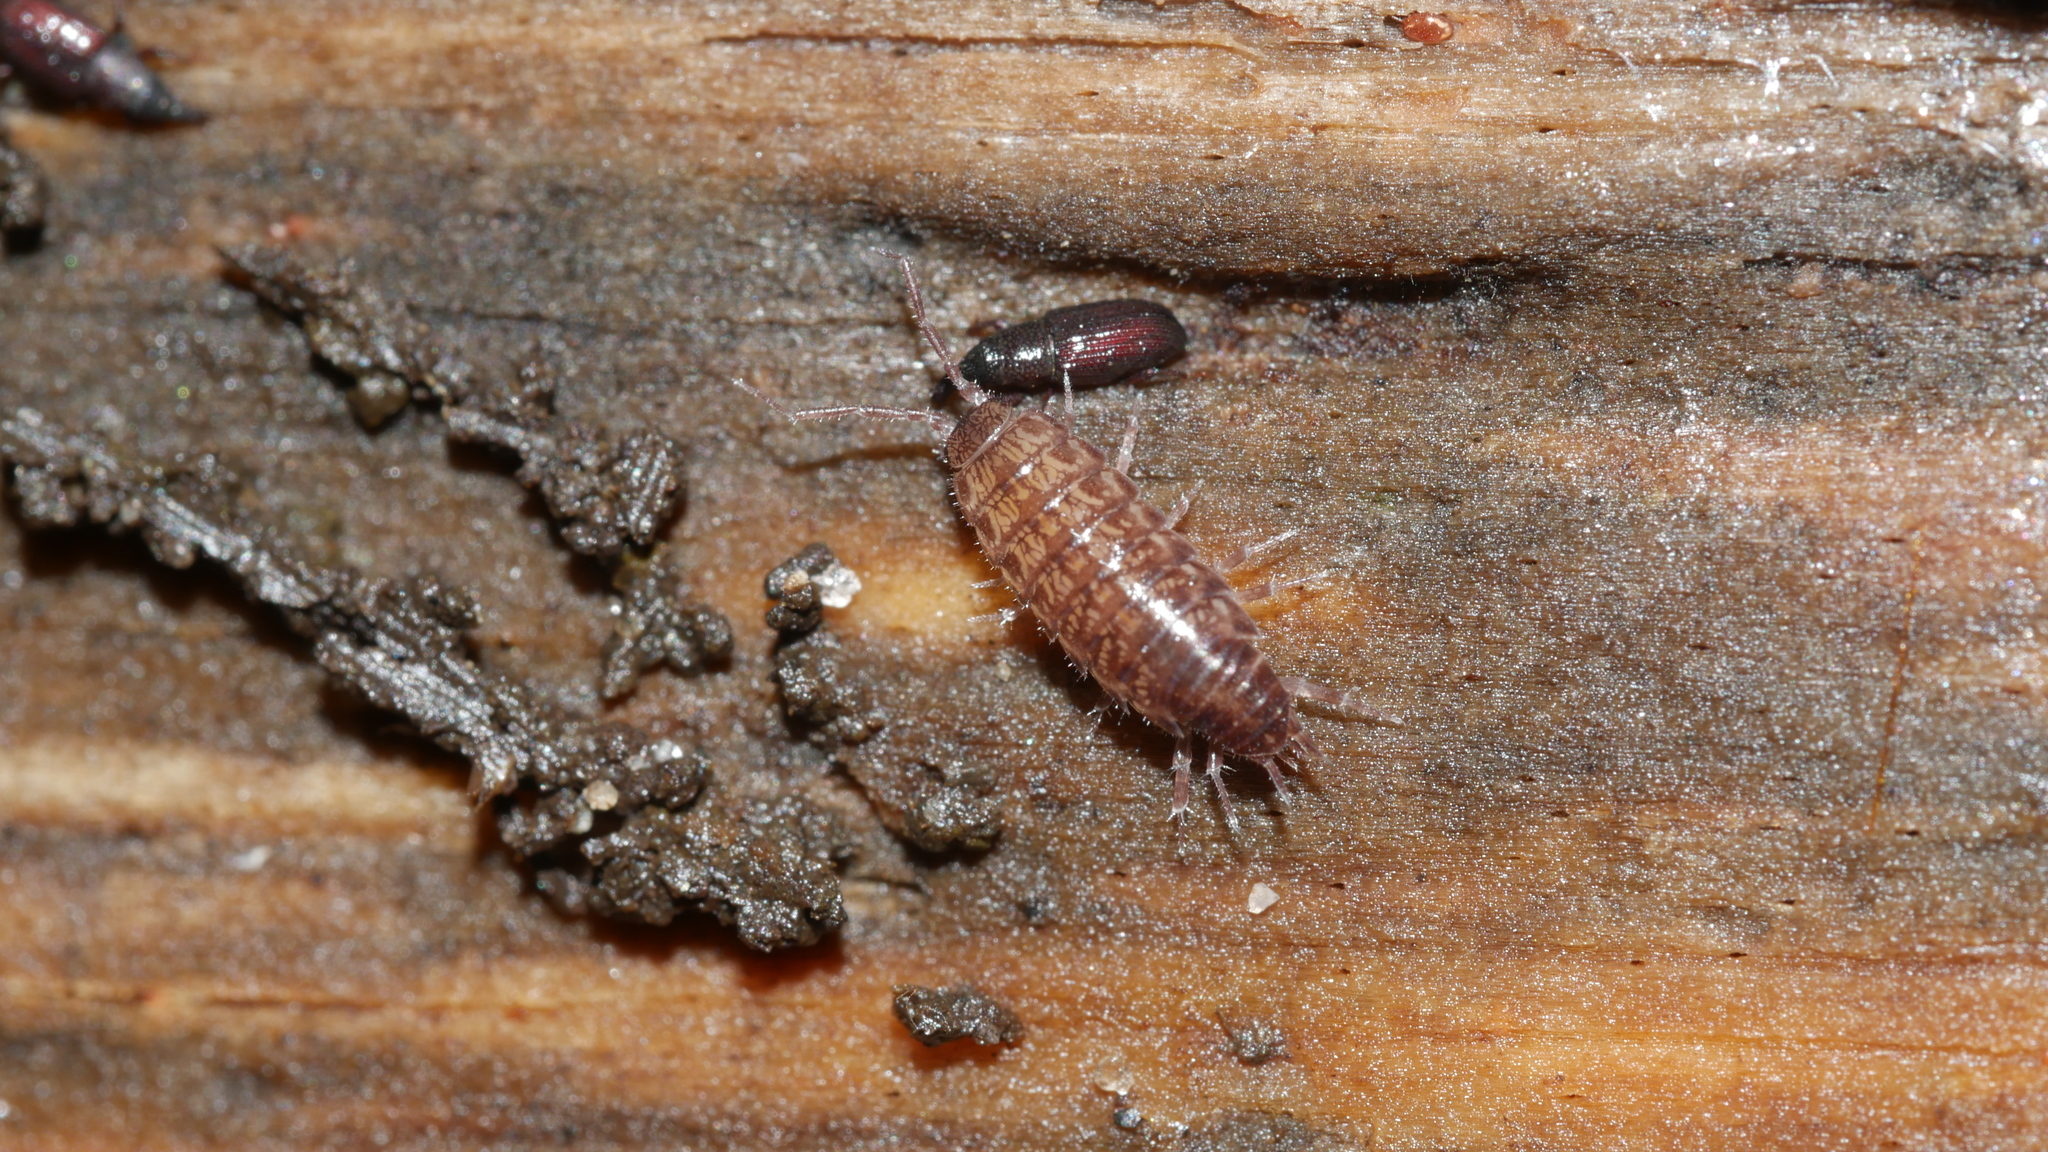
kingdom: Animalia
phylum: Arthropoda
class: Malacostraca
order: Isopoda
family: Philosciidae
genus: Chaetophiloscia
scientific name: Chaetophiloscia sicula
